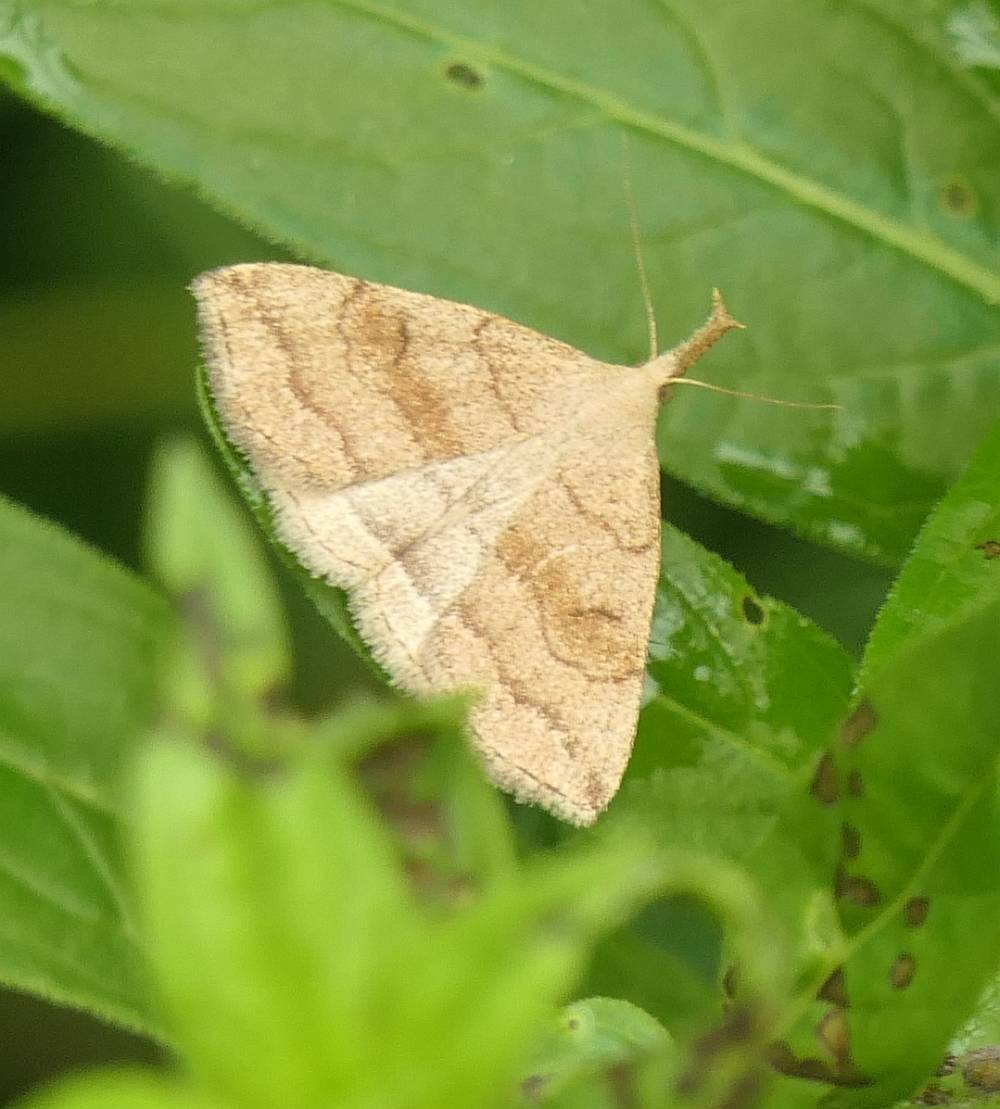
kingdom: Animalia
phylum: Arthropoda
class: Insecta
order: Lepidoptera
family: Erebidae
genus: Phalaenostola
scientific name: Phalaenostola metonalis
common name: Pale phalaenostola moth
